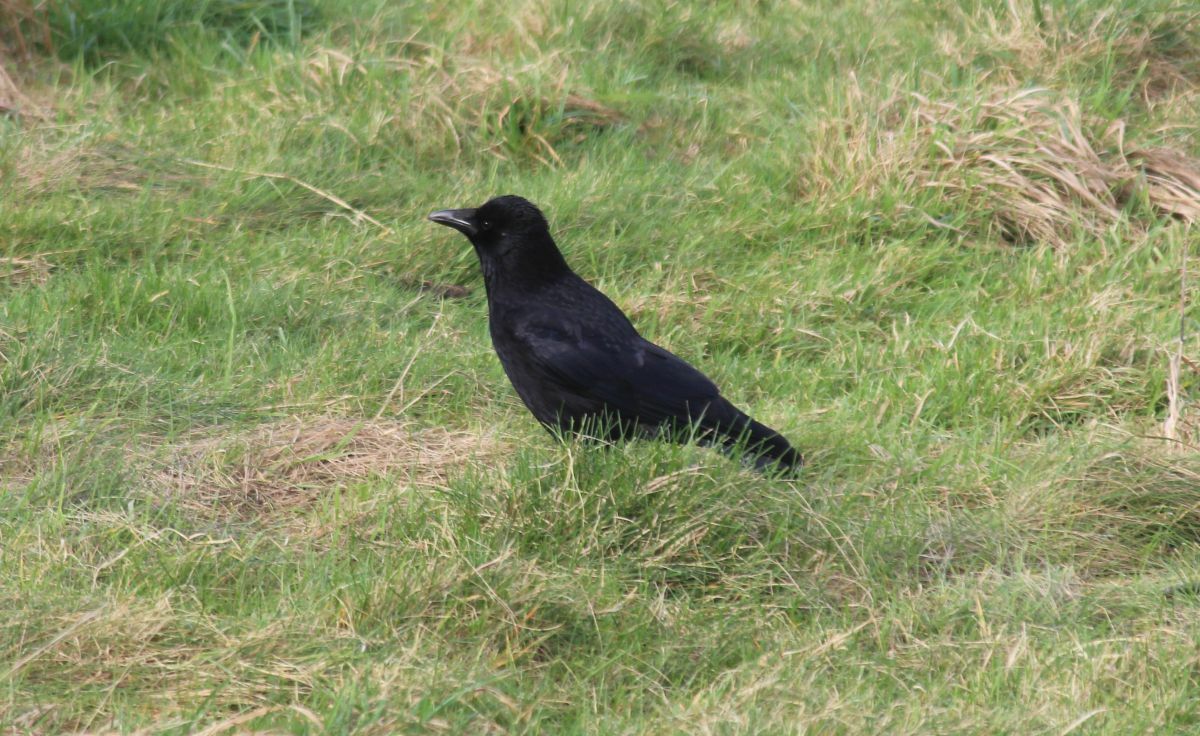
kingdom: Animalia
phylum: Chordata
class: Aves
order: Passeriformes
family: Corvidae
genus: Corvus
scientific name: Corvus corone
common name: Carrion crow
